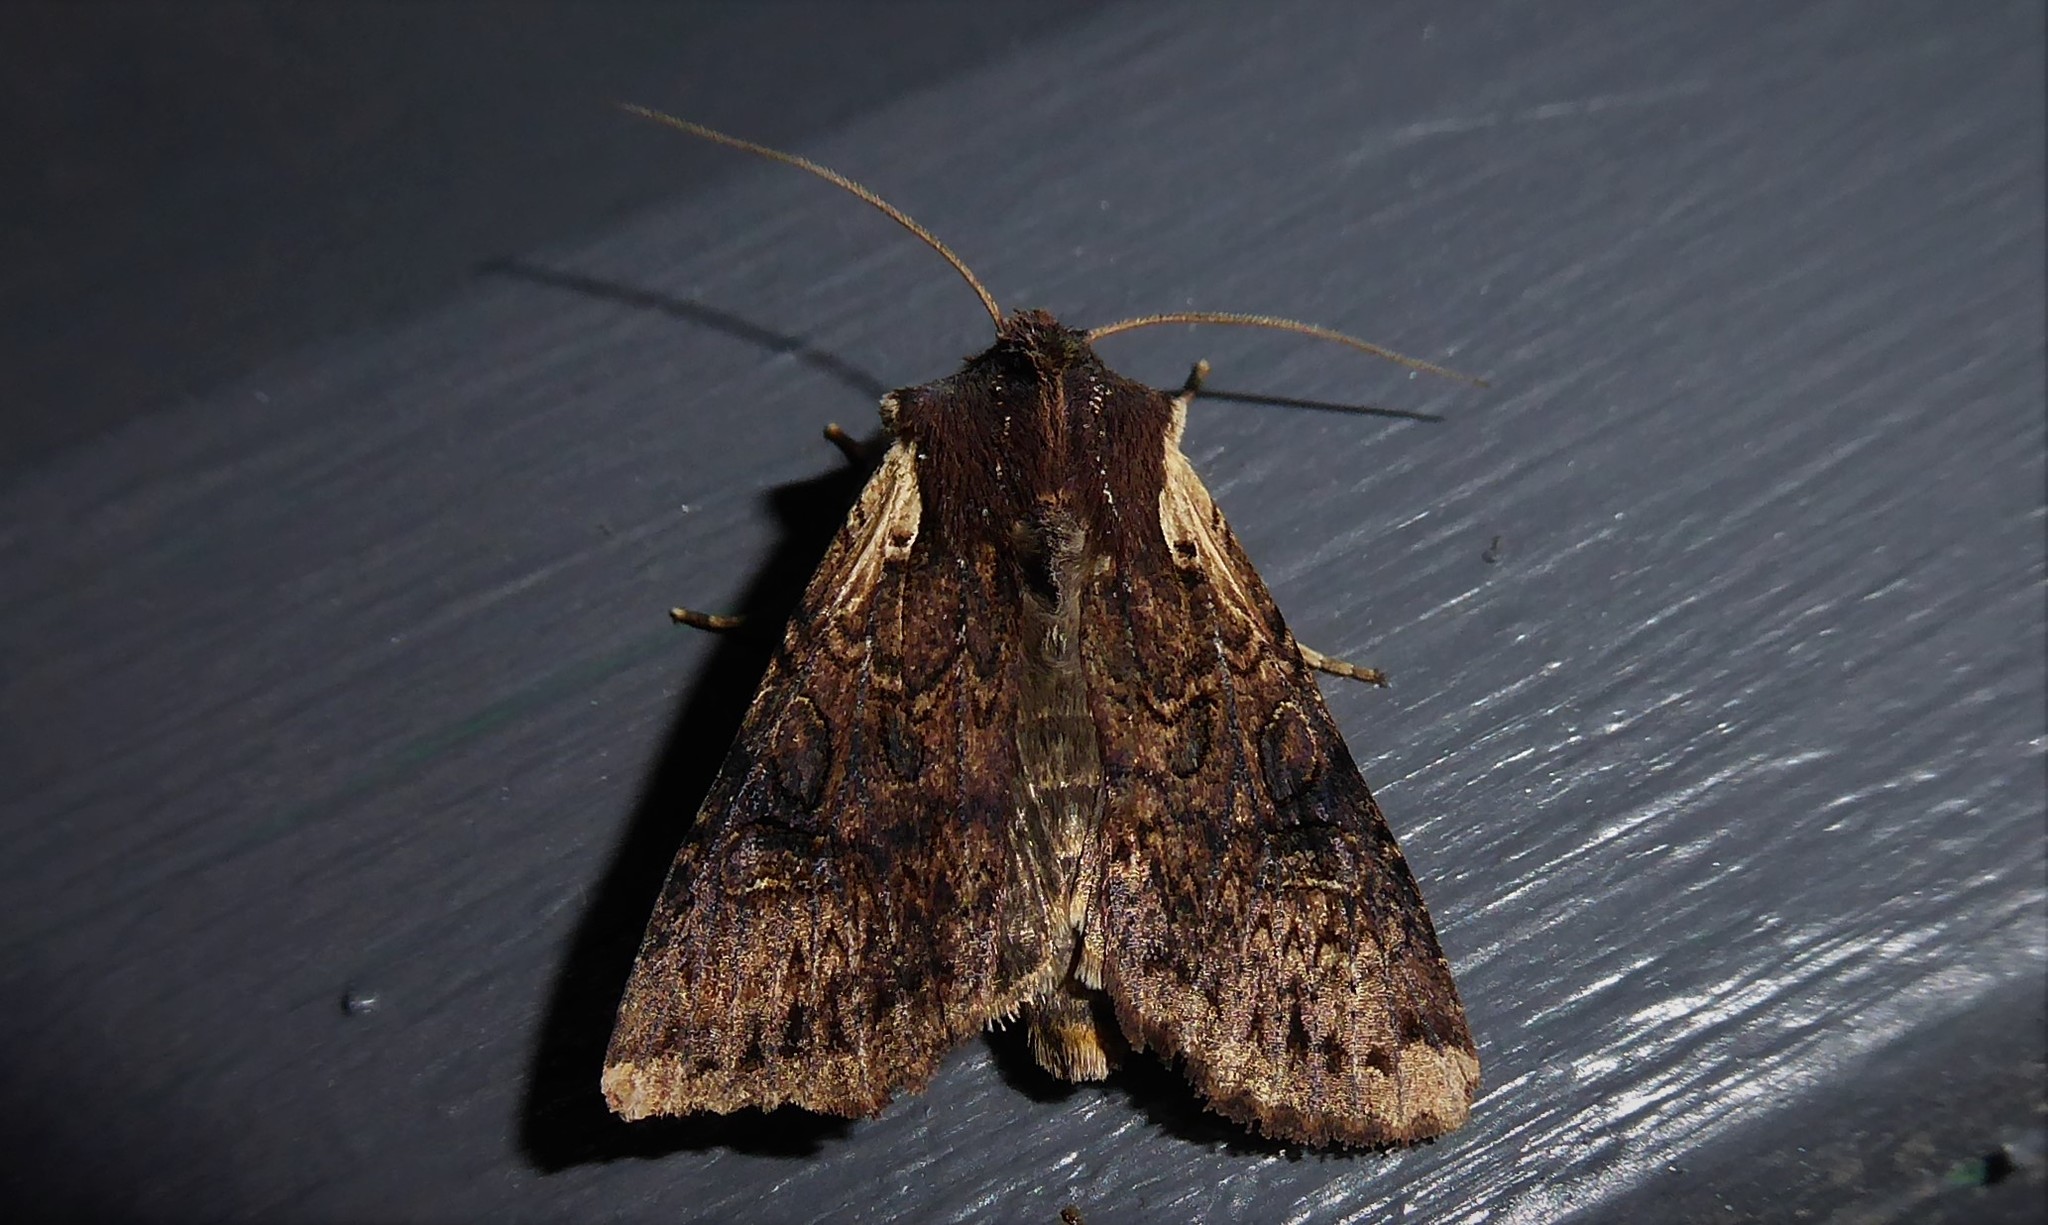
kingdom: Animalia
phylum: Arthropoda
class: Insecta
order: Lepidoptera
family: Noctuidae
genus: Ichneutica
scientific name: Ichneutica omoplaca
